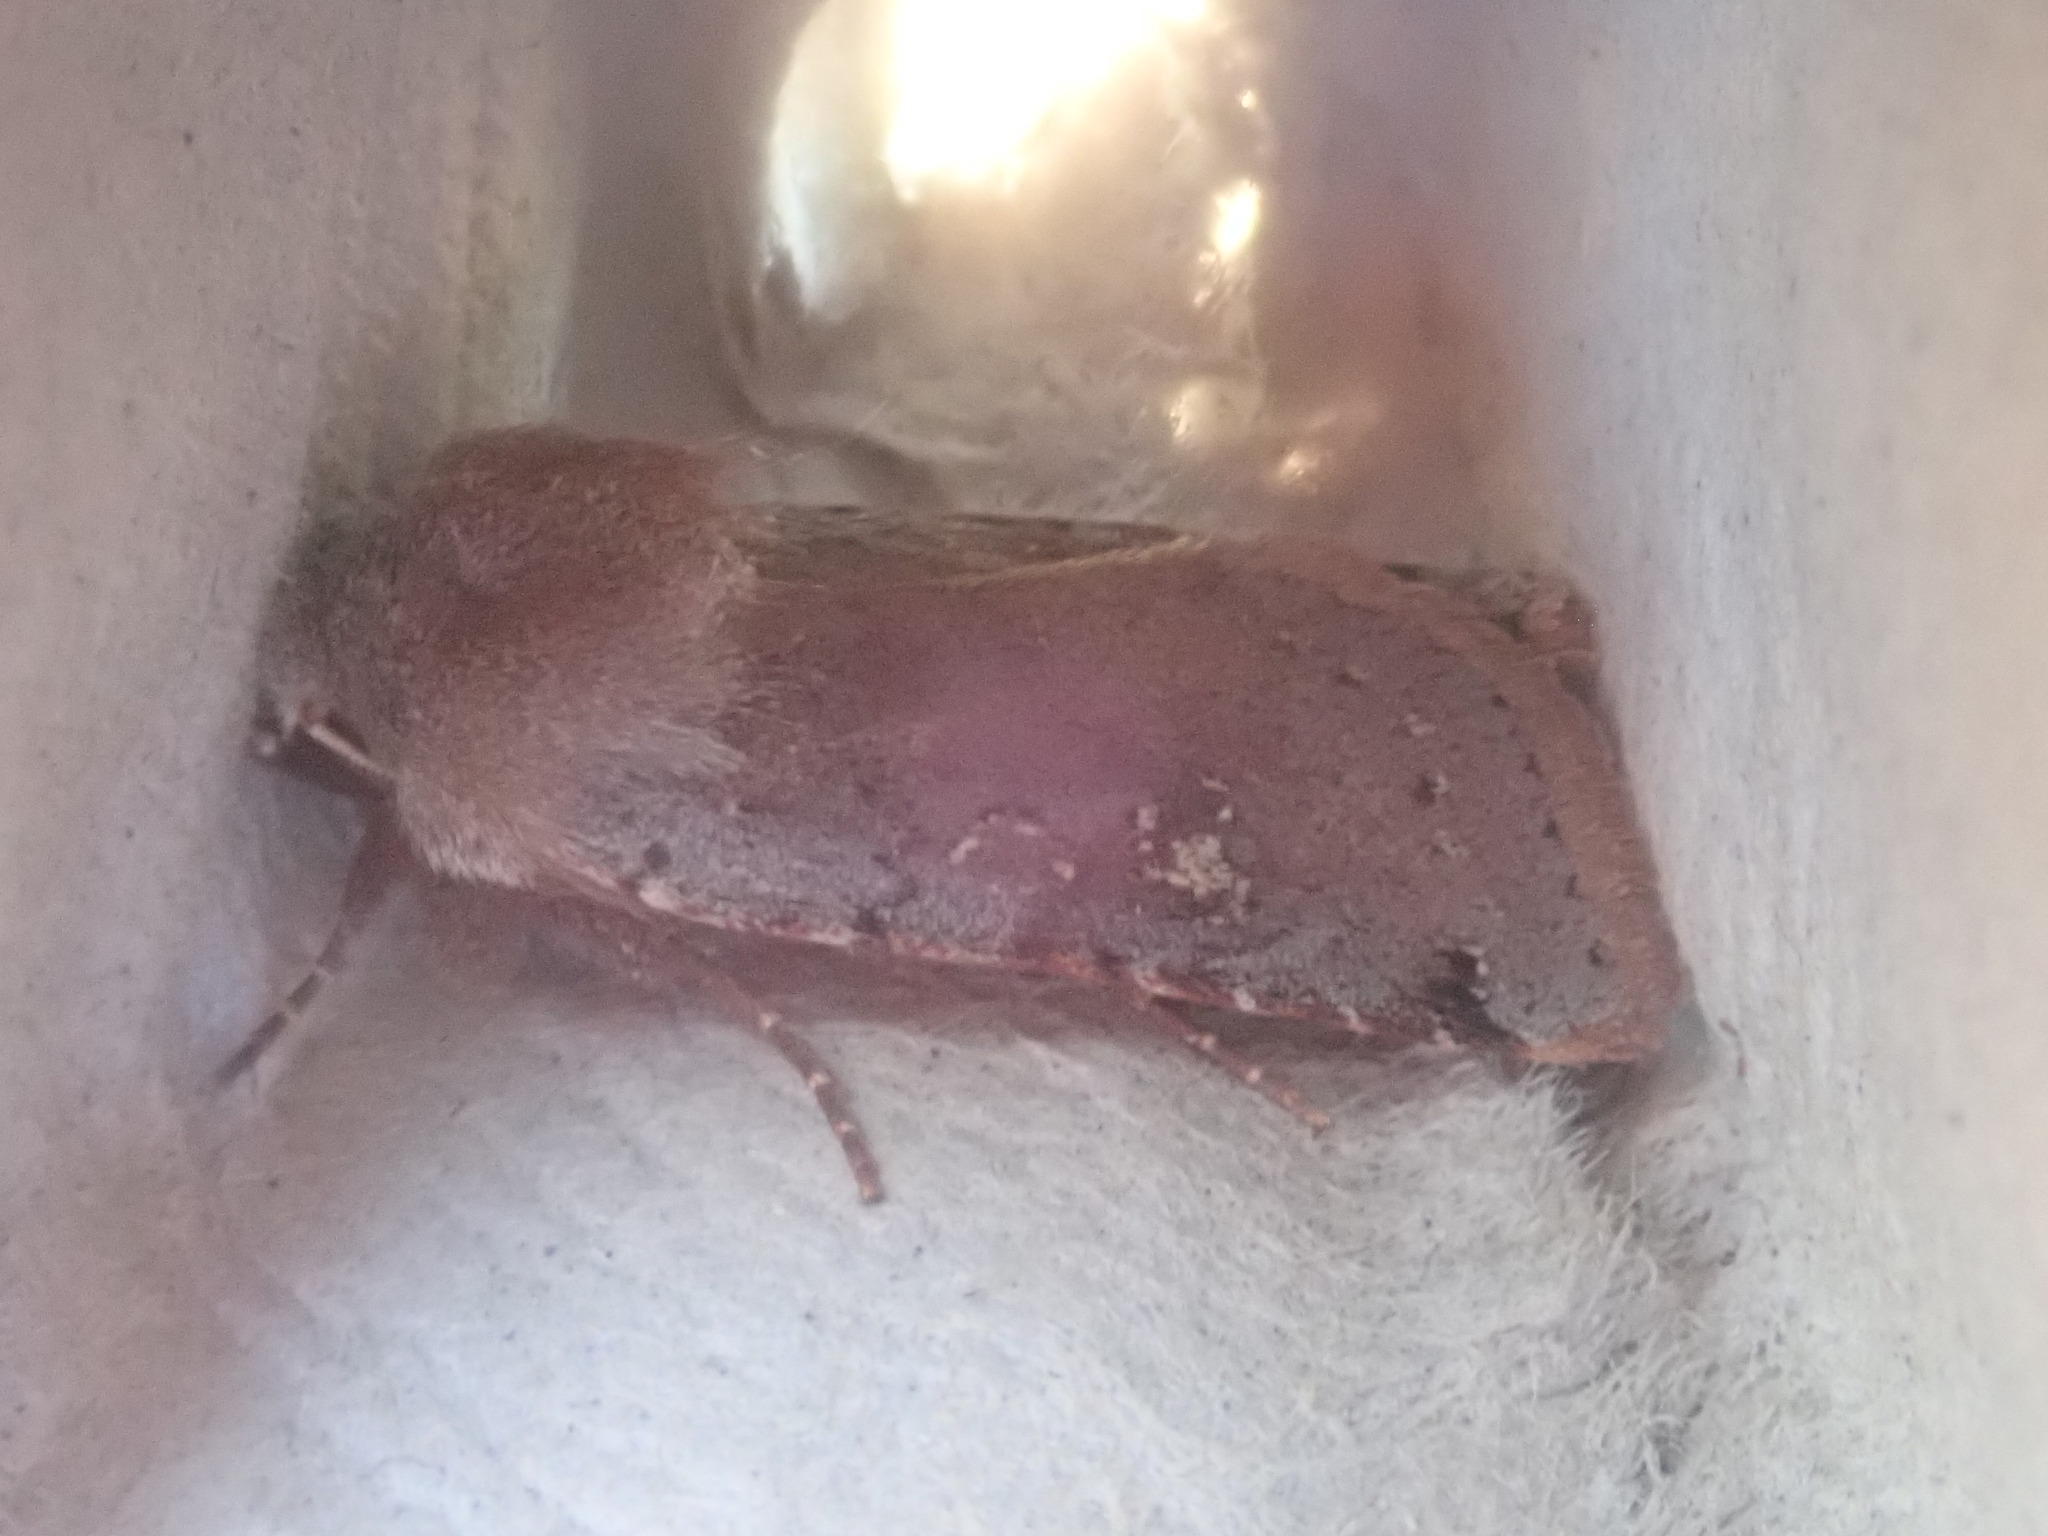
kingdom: Animalia
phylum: Arthropoda
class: Insecta
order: Lepidoptera
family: Noctuidae
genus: Cerastis
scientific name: Cerastis fishii
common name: Fish's dart
